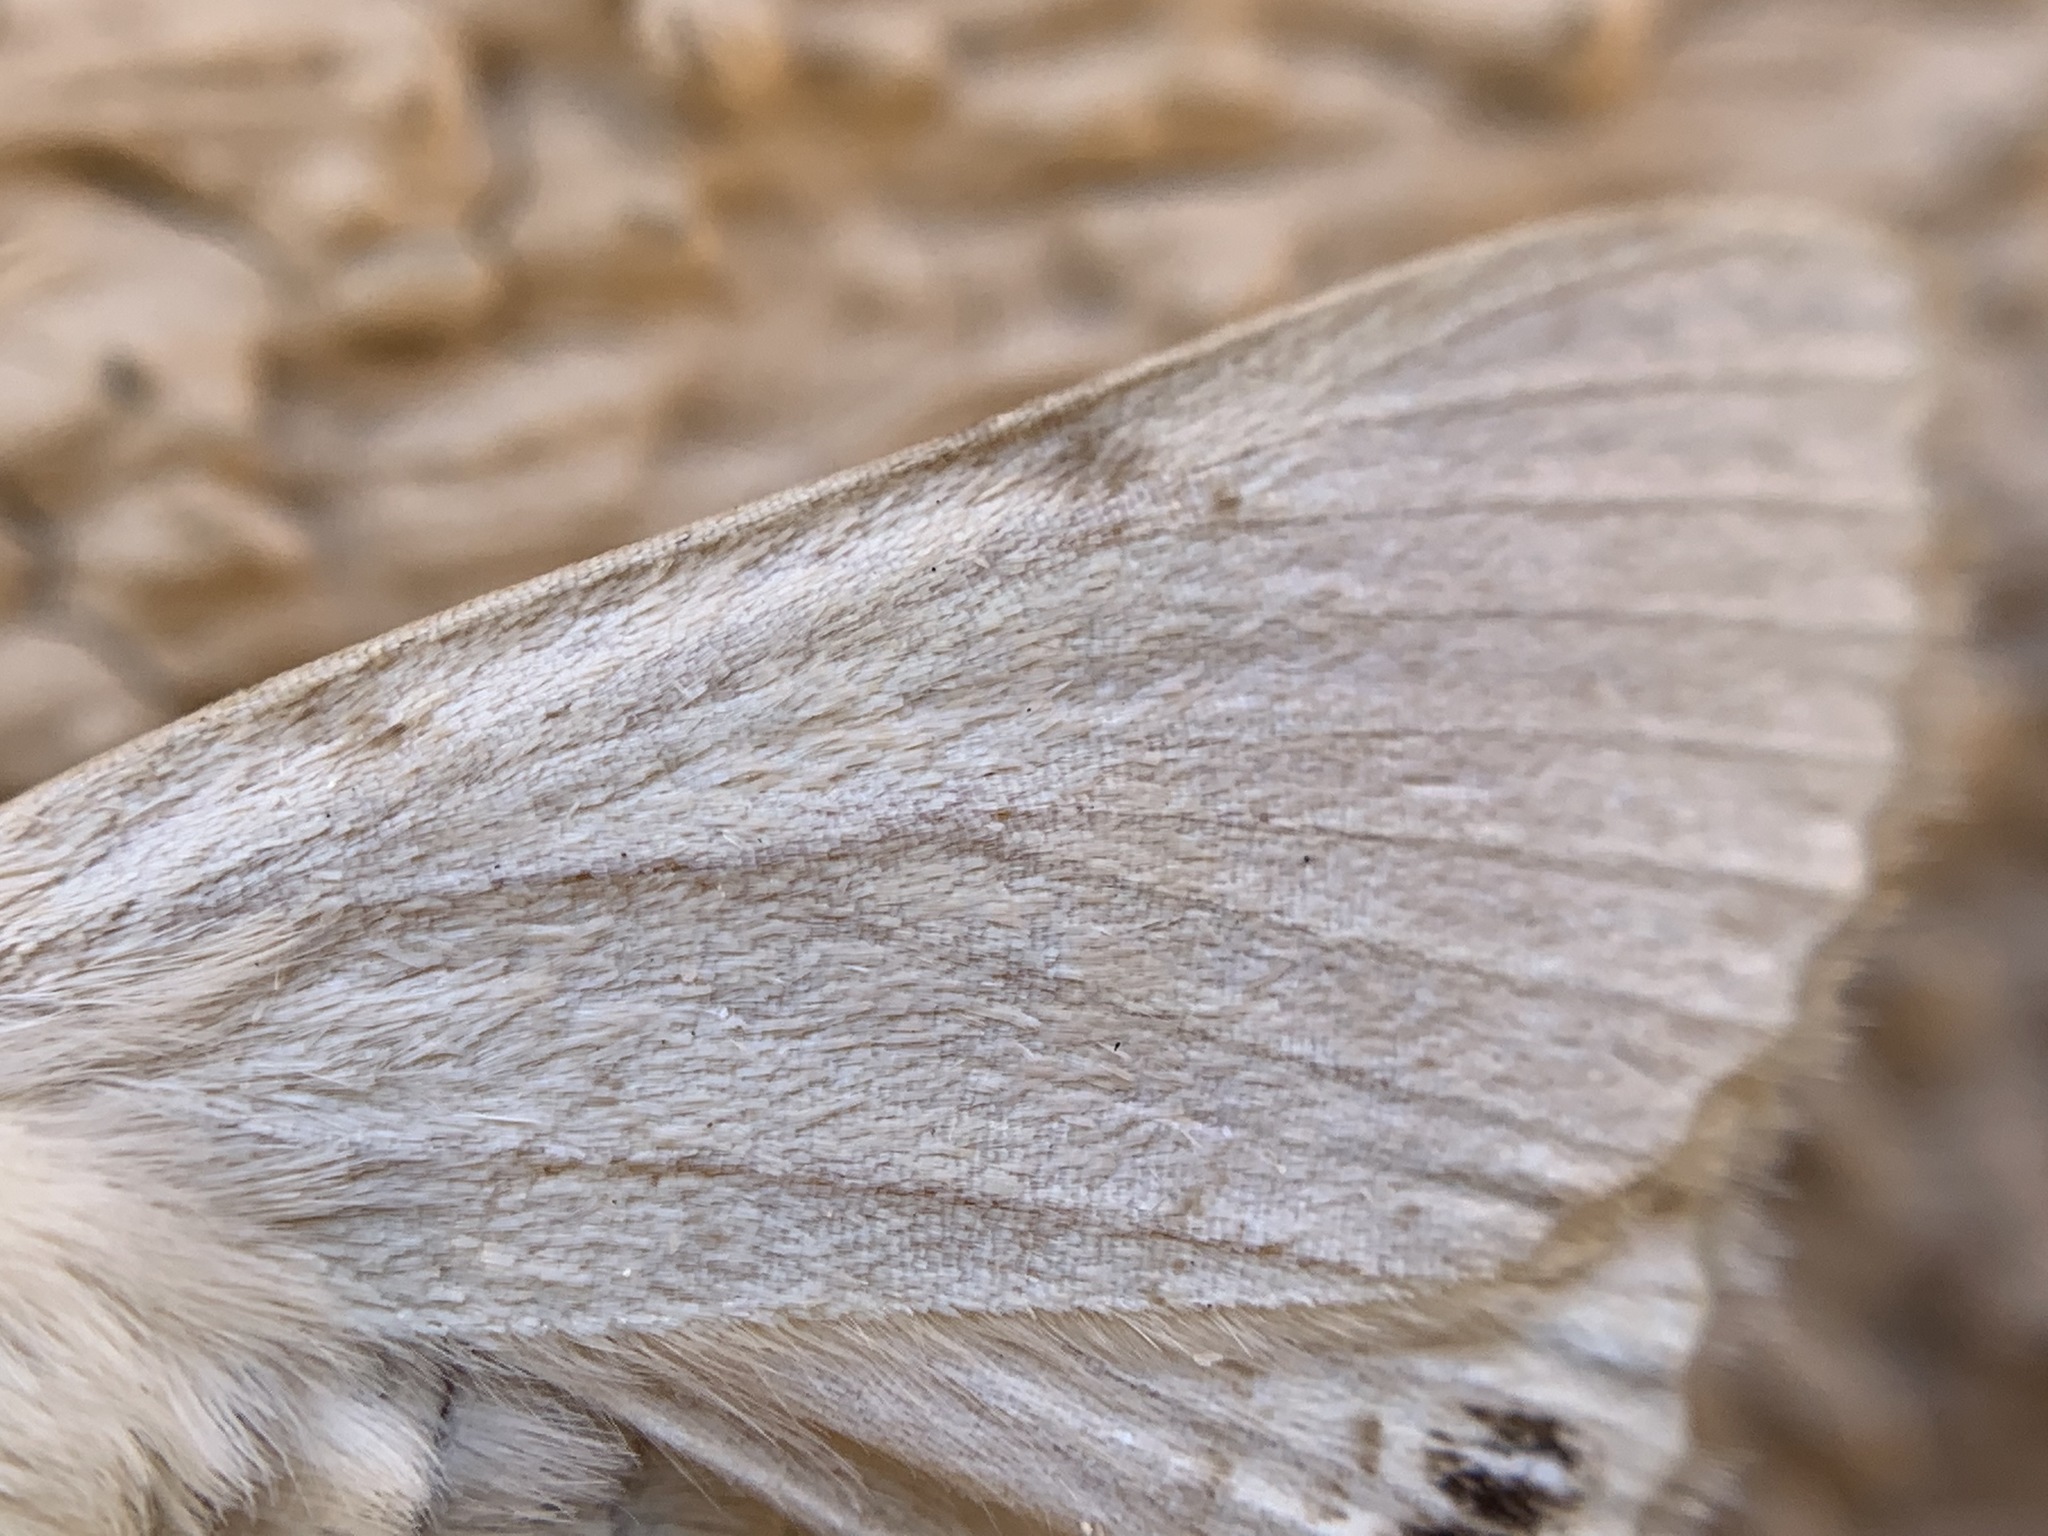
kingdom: Animalia
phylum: Arthropoda
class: Insecta
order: Lepidoptera
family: Erebidae
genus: Litoprosopus
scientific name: Litoprosopus coachella
